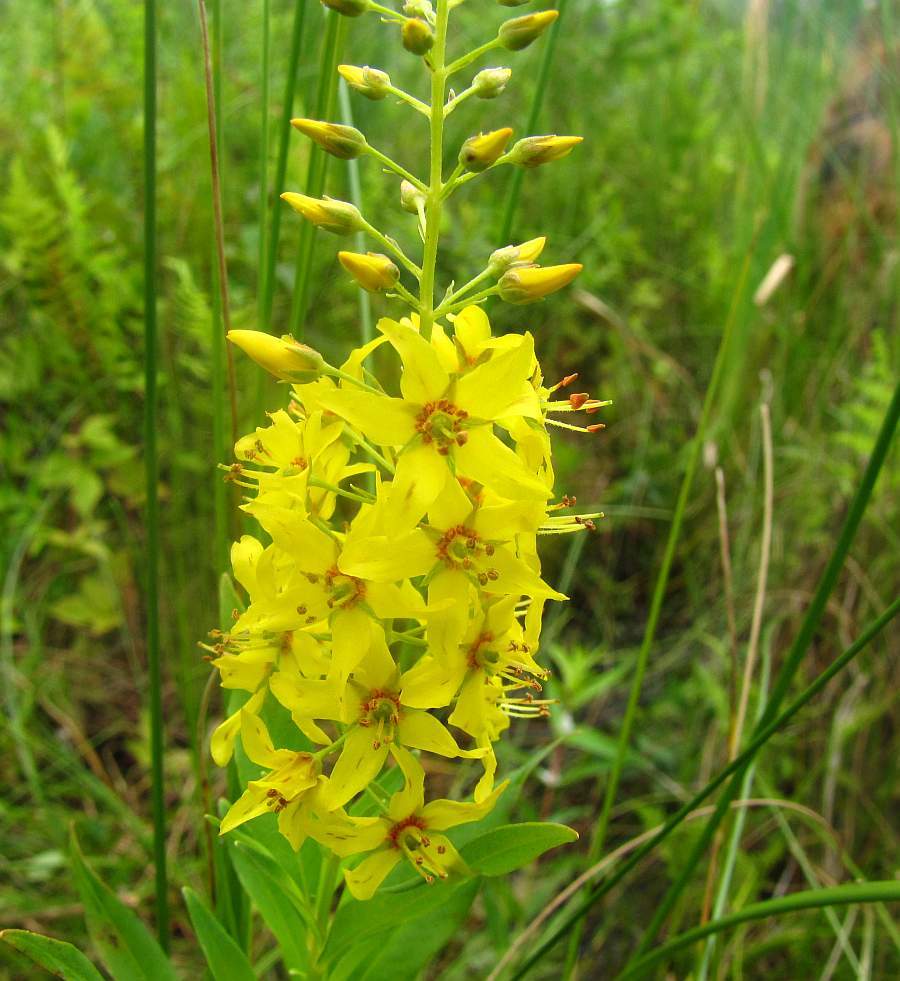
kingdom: Plantae
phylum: Tracheophyta
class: Magnoliopsida
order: Ericales
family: Primulaceae
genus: Lysimachia
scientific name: Lysimachia terrestris
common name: Lake loosestrife
